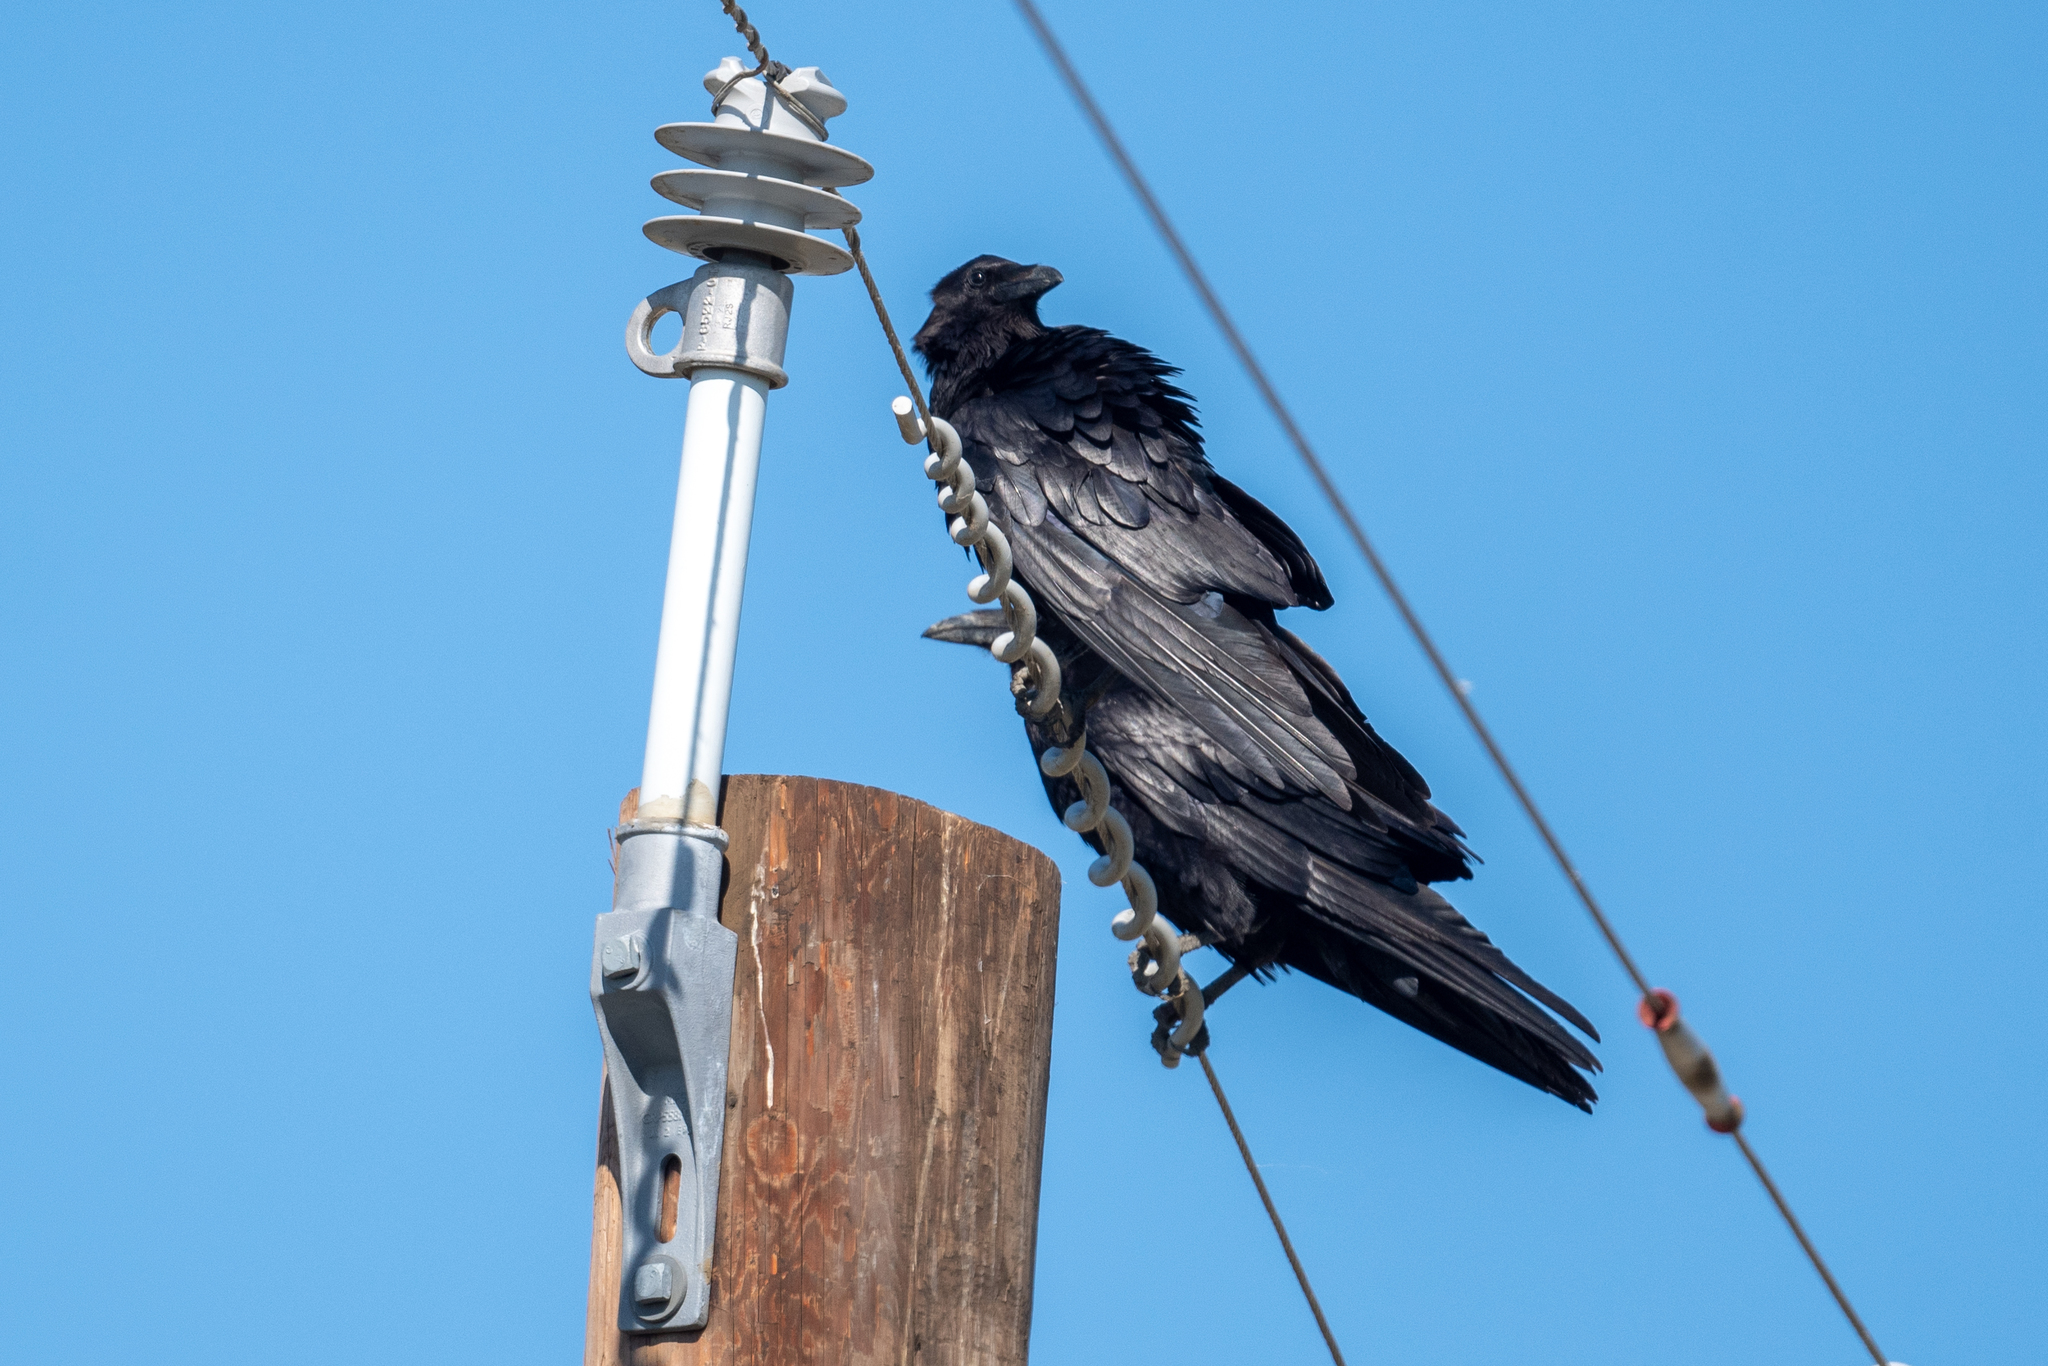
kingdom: Animalia
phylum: Chordata
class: Aves
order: Passeriformes
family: Corvidae
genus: Corvus
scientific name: Corvus corax
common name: Common raven
